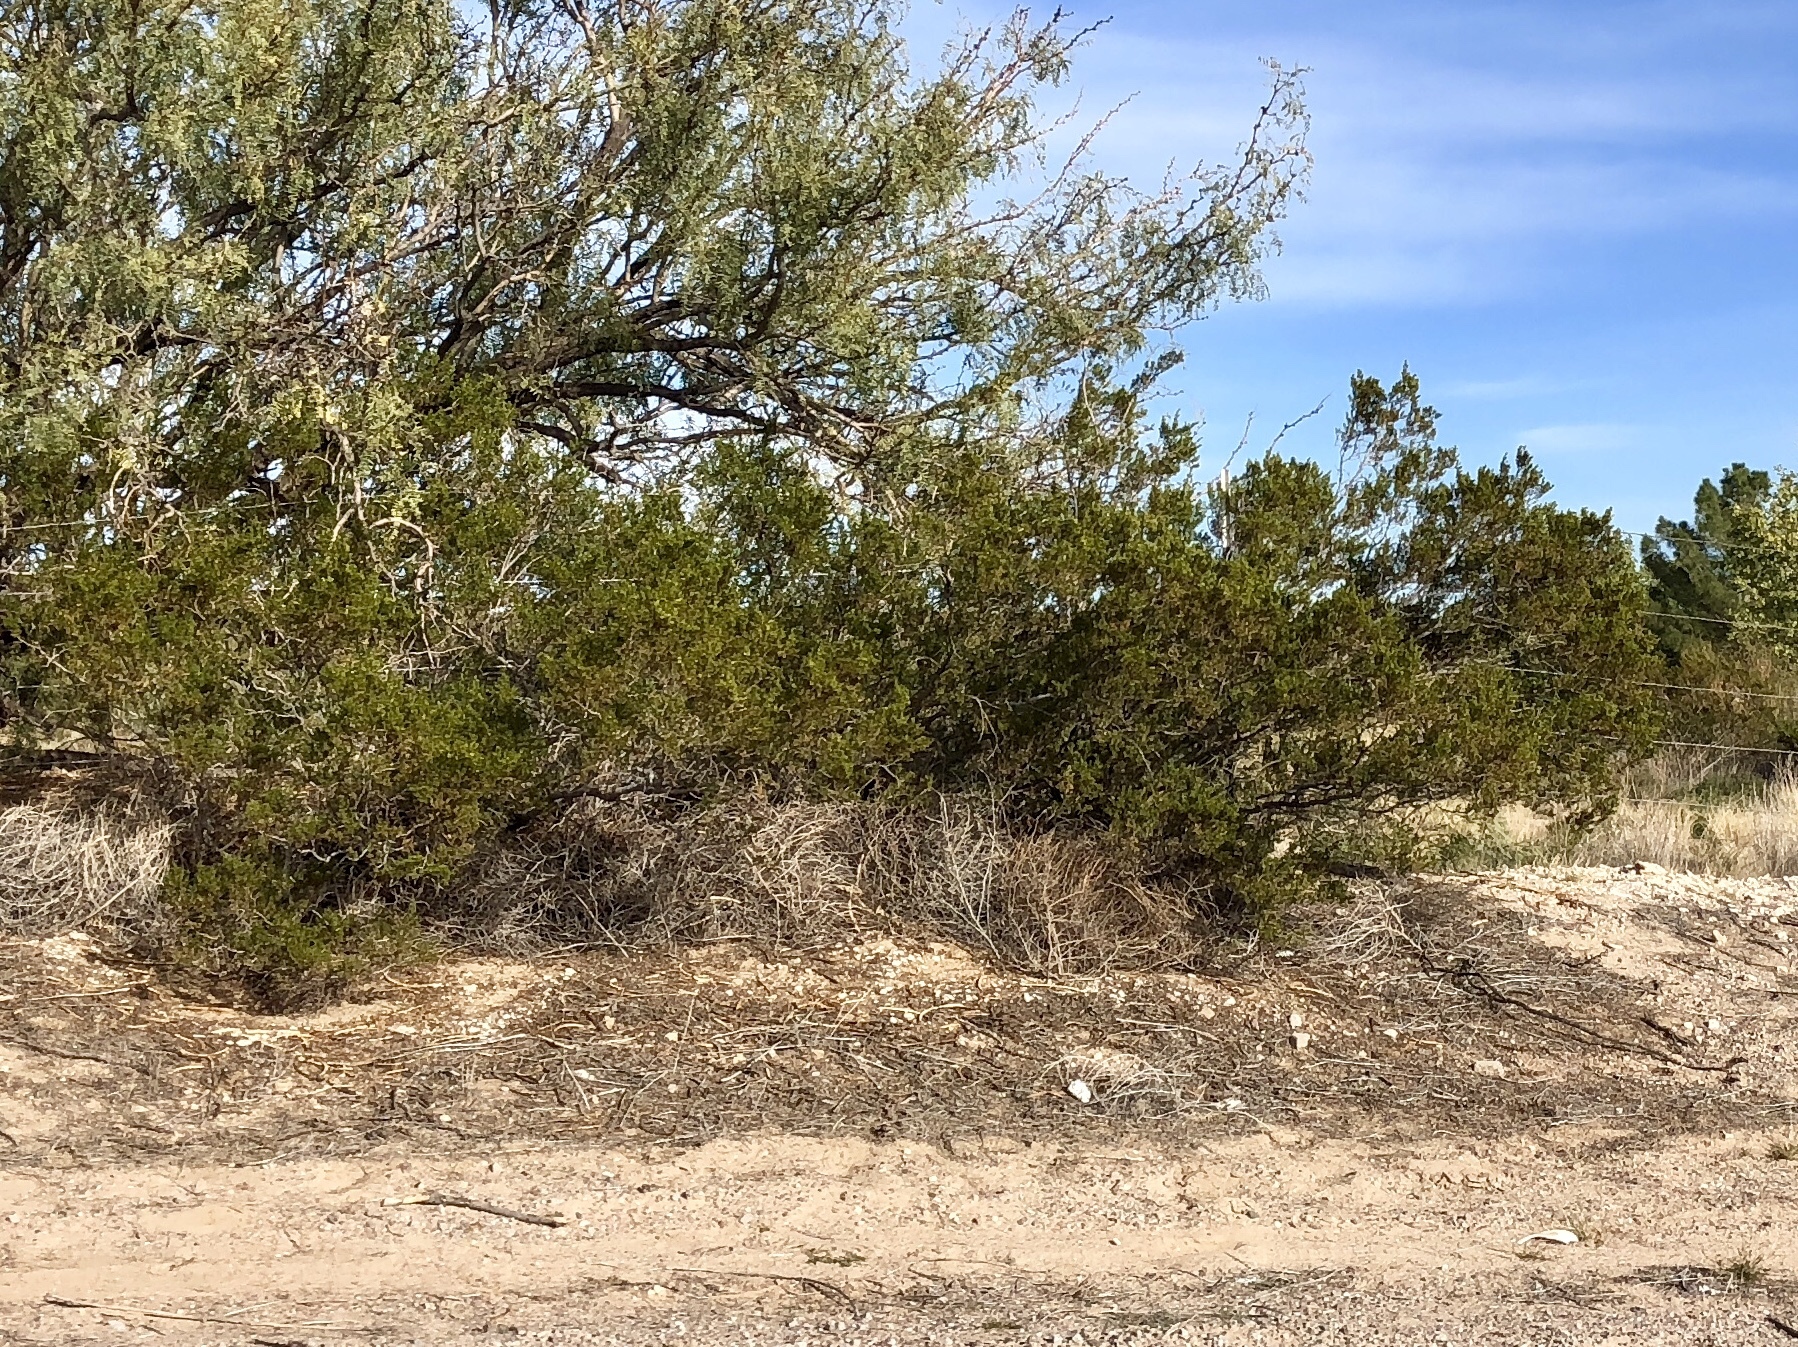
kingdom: Plantae
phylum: Tracheophyta
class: Magnoliopsida
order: Zygophyllales
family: Zygophyllaceae
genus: Larrea
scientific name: Larrea tridentata
